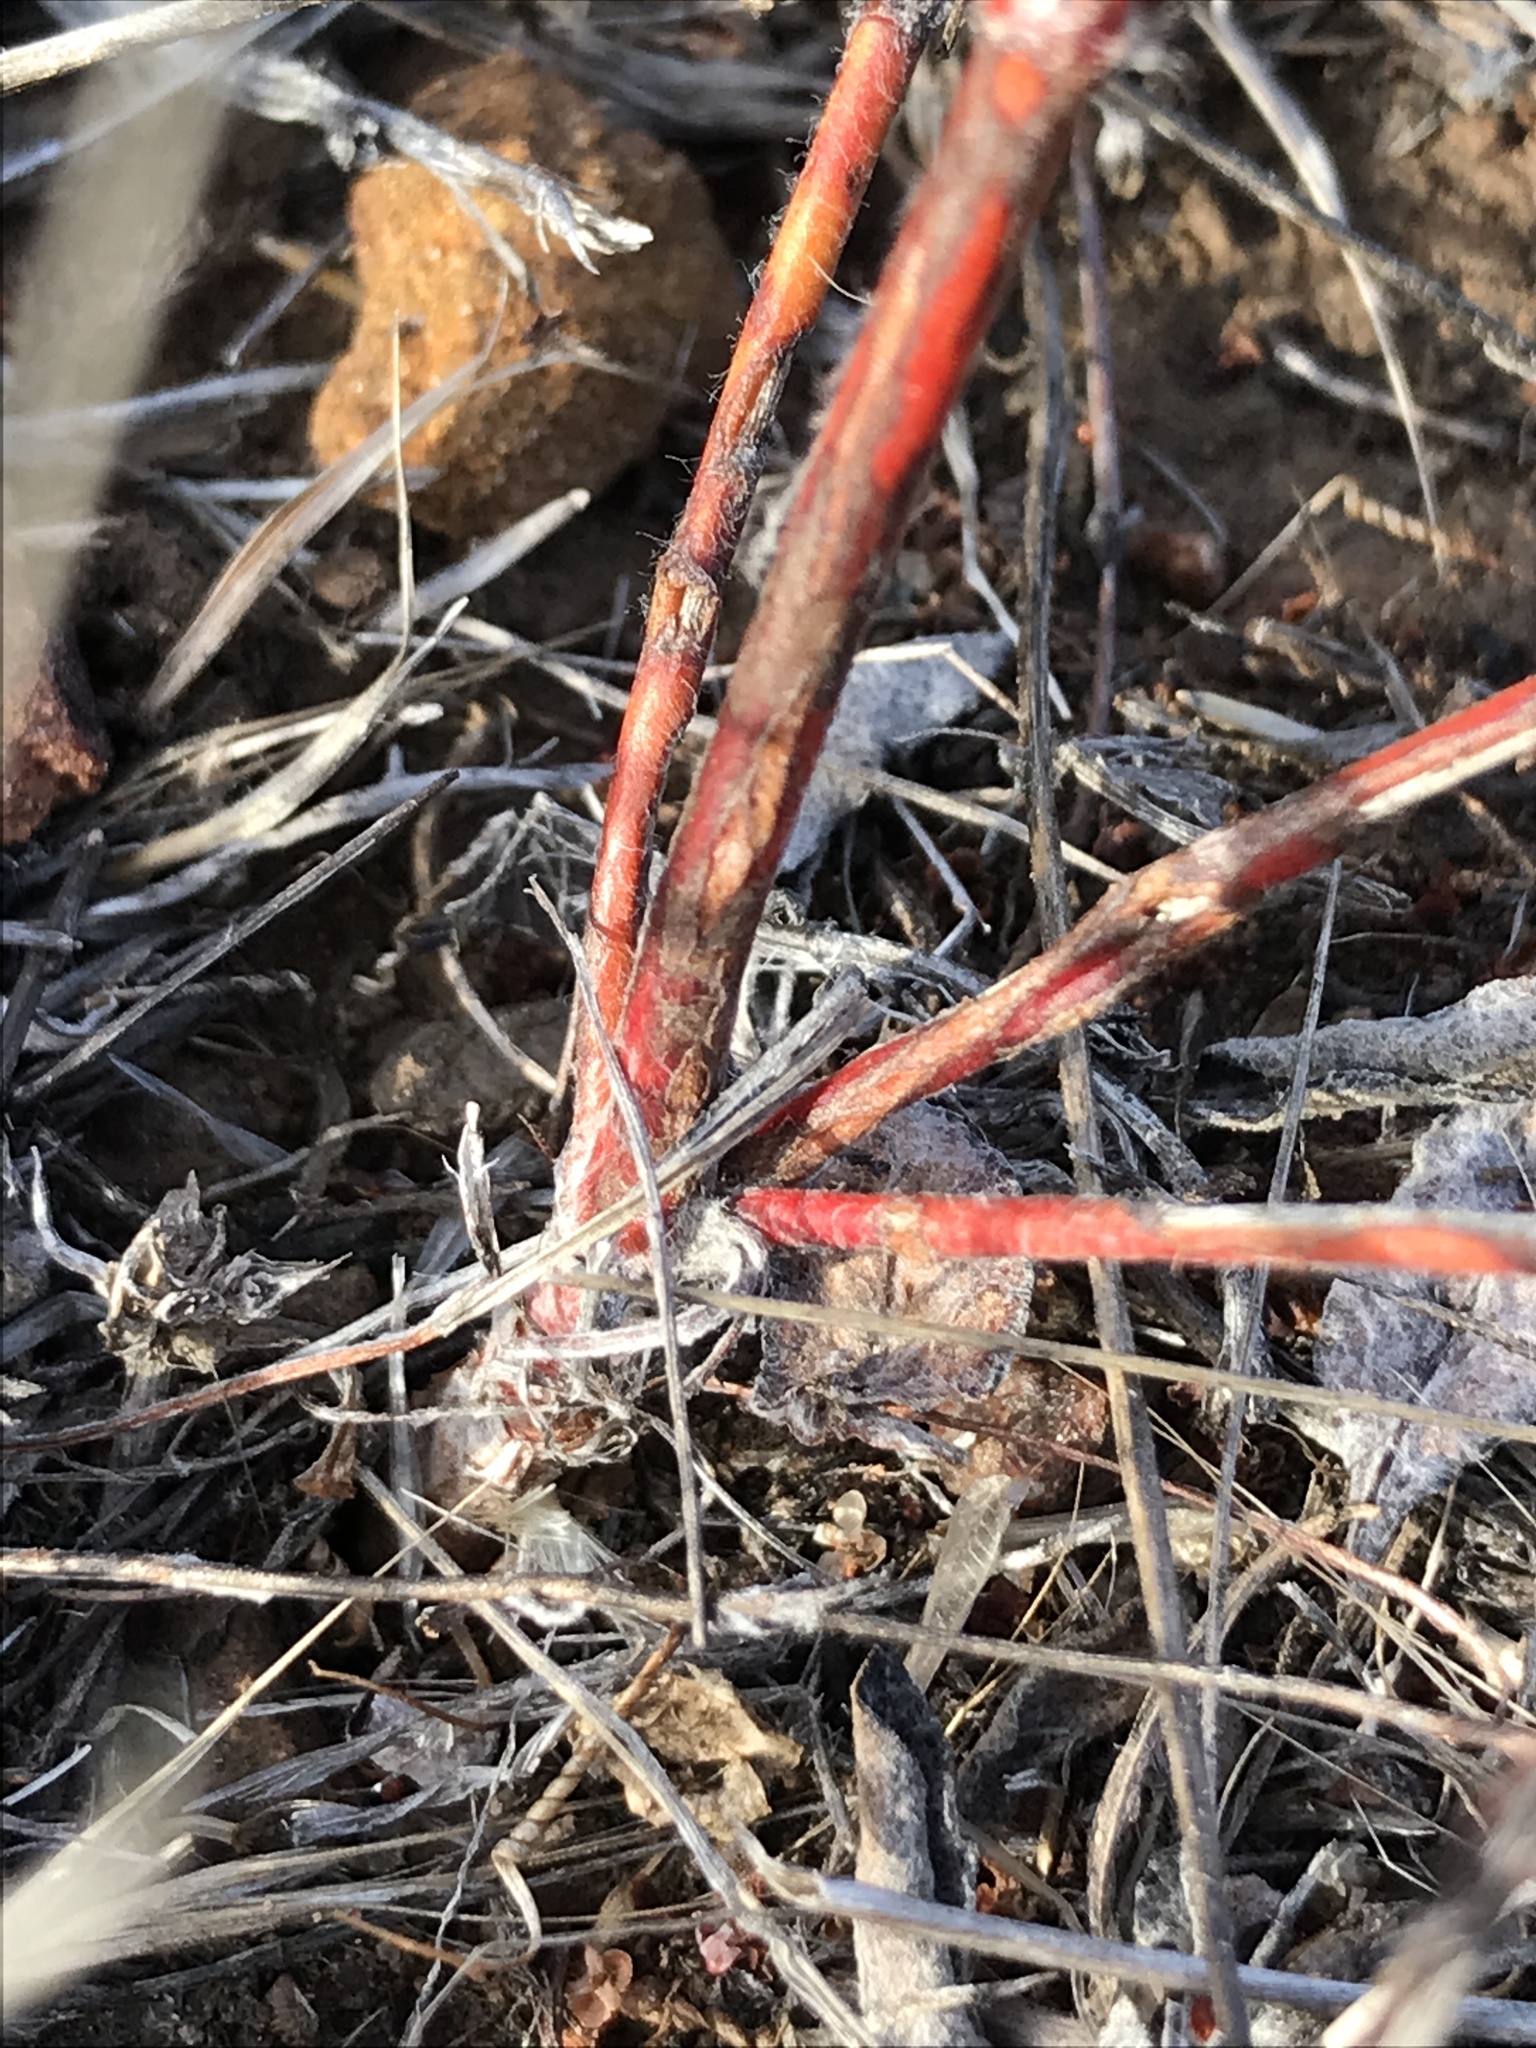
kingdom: Plantae
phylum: Tracheophyta
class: Magnoliopsida
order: Caryophyllales
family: Polygonaceae
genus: Eriogonum
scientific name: Eriogonum gracile
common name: Slender woolly buckwheat
